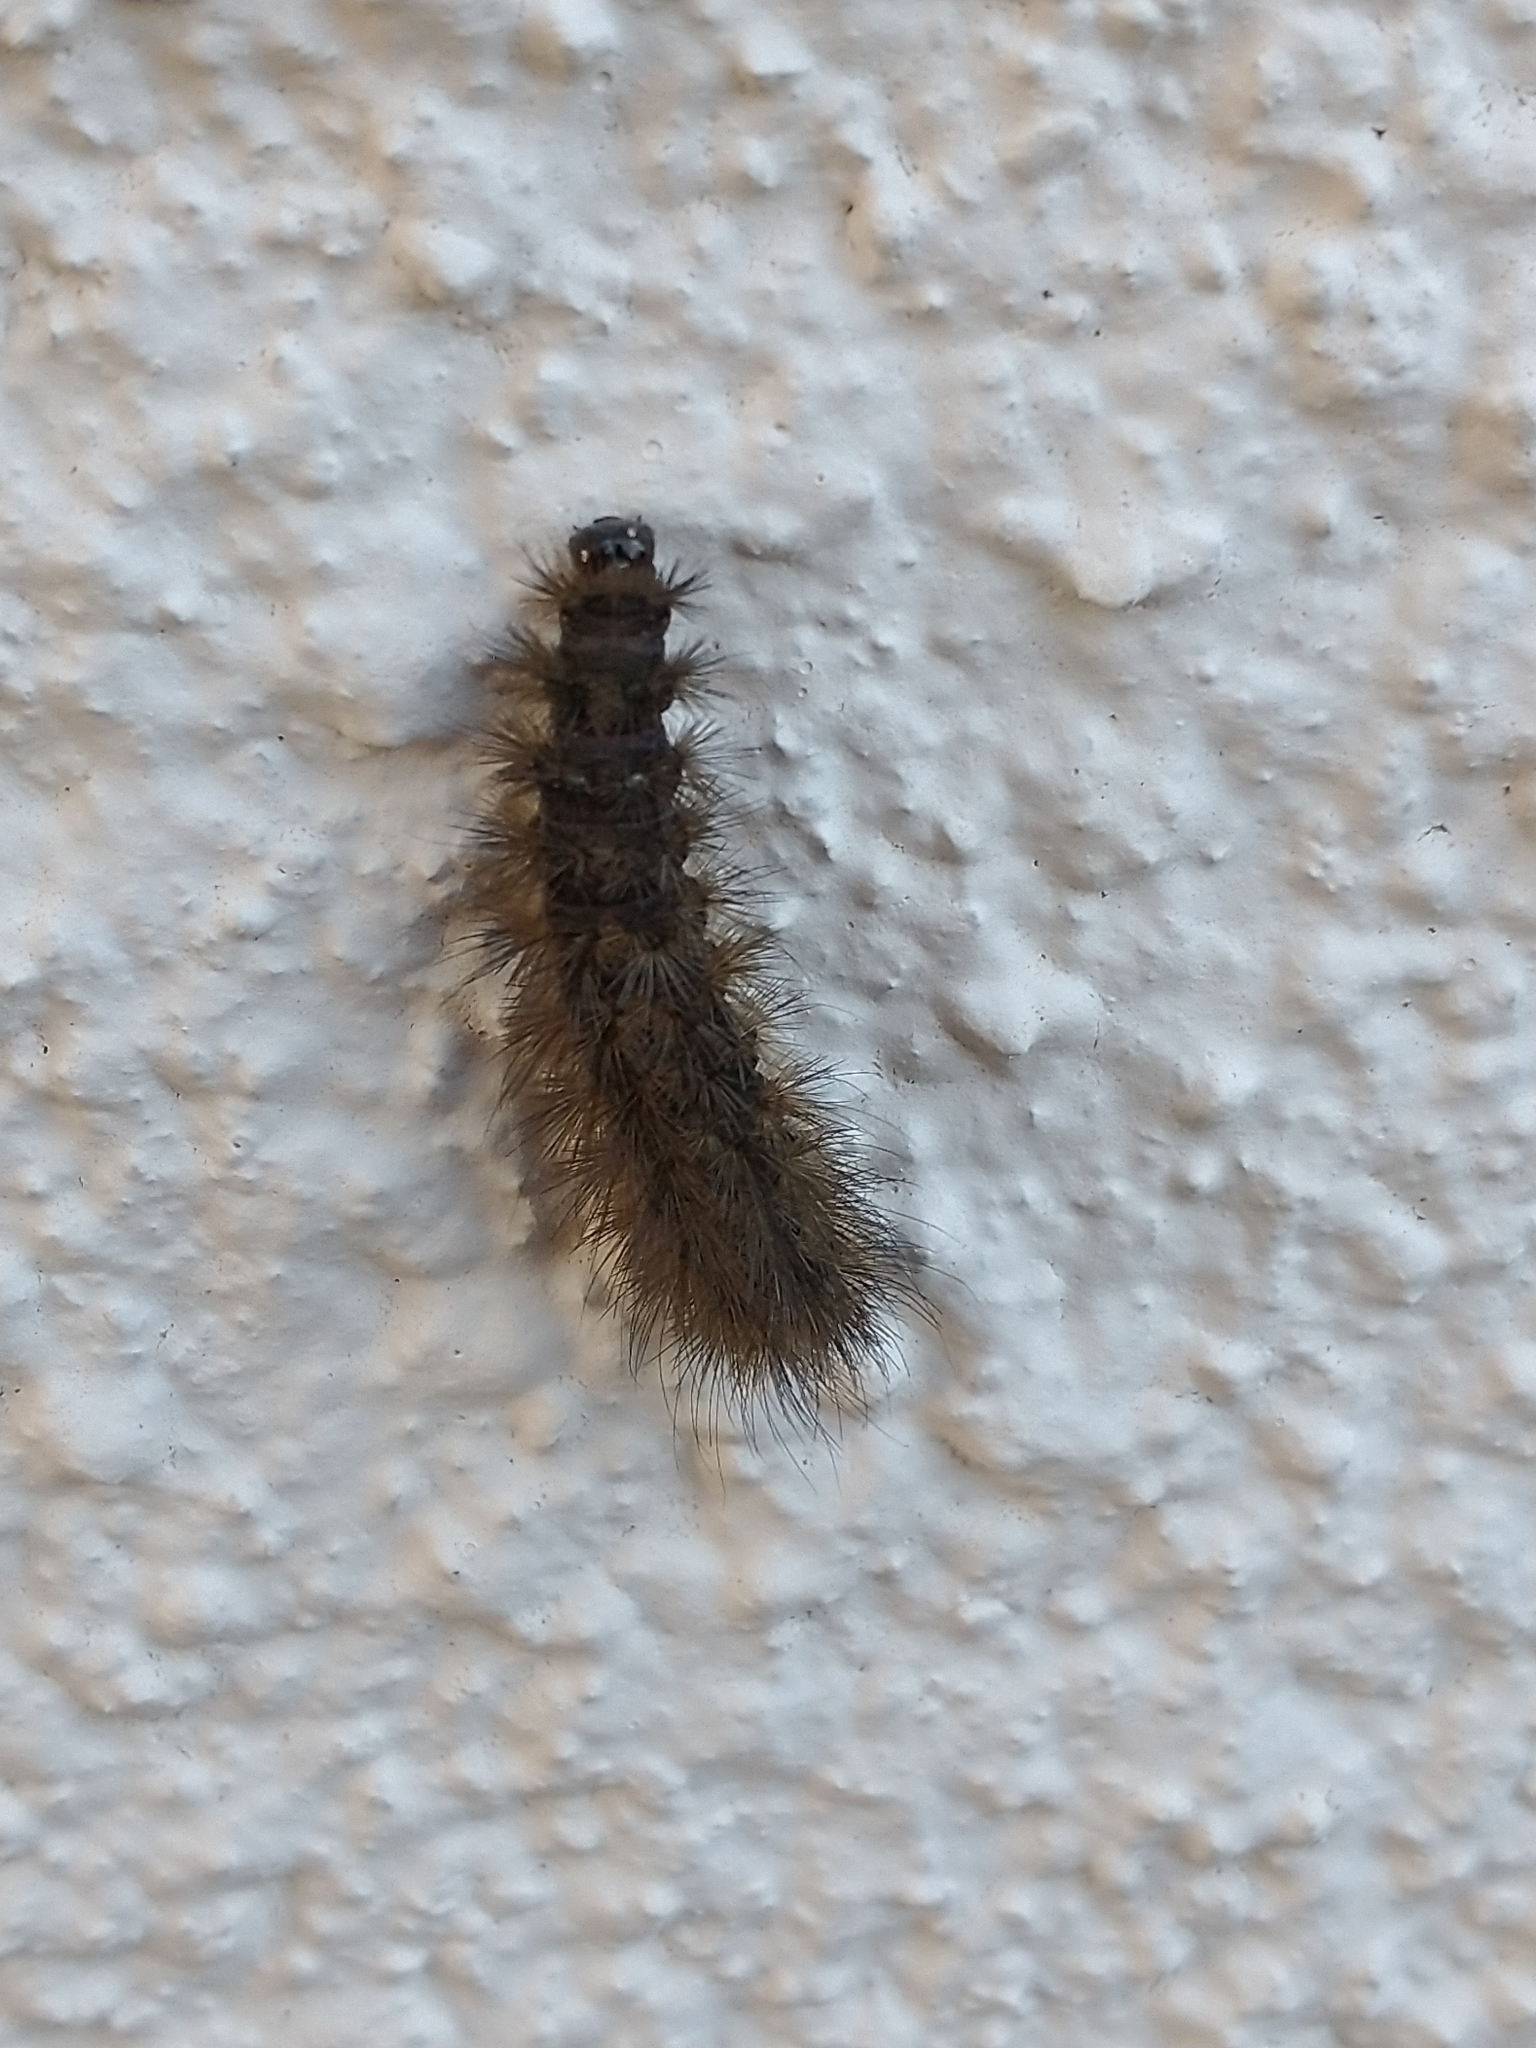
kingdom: Animalia
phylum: Arthropoda
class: Insecta
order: Lepidoptera
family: Erebidae
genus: Phragmatobia
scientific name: Phragmatobia fuliginosa
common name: Ruby tiger
